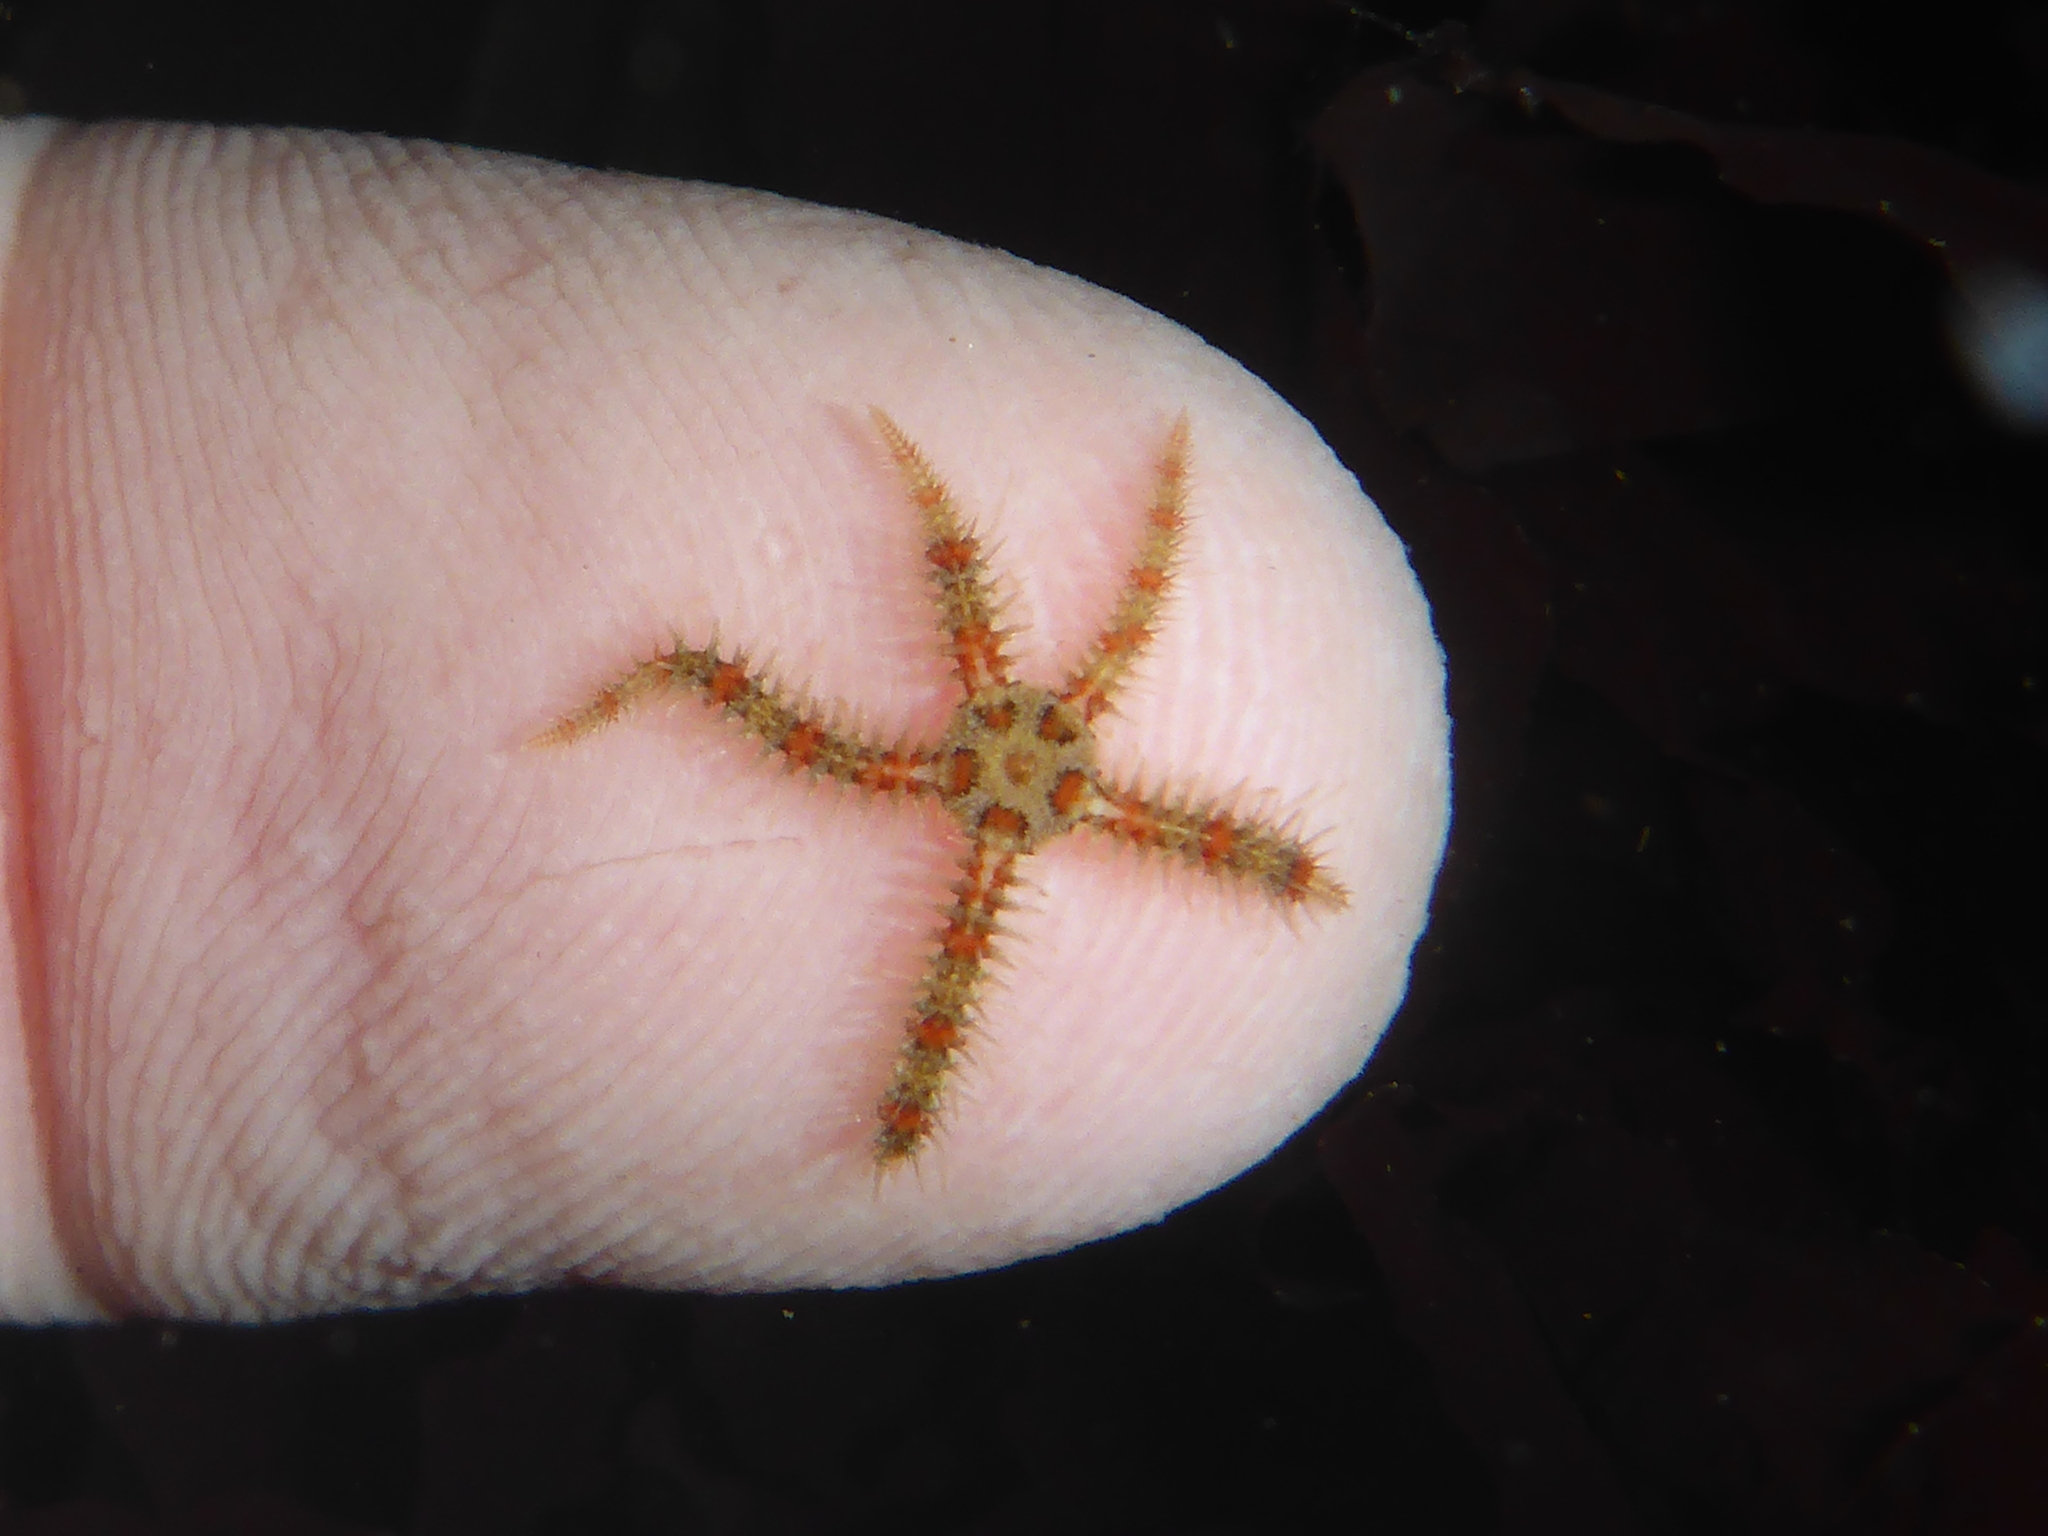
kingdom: Animalia
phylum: Echinodermata
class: Ophiuroidea
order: Amphilepidida
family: Ophiotrichidae
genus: Ophiothrix
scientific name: Ophiothrix spiculata
